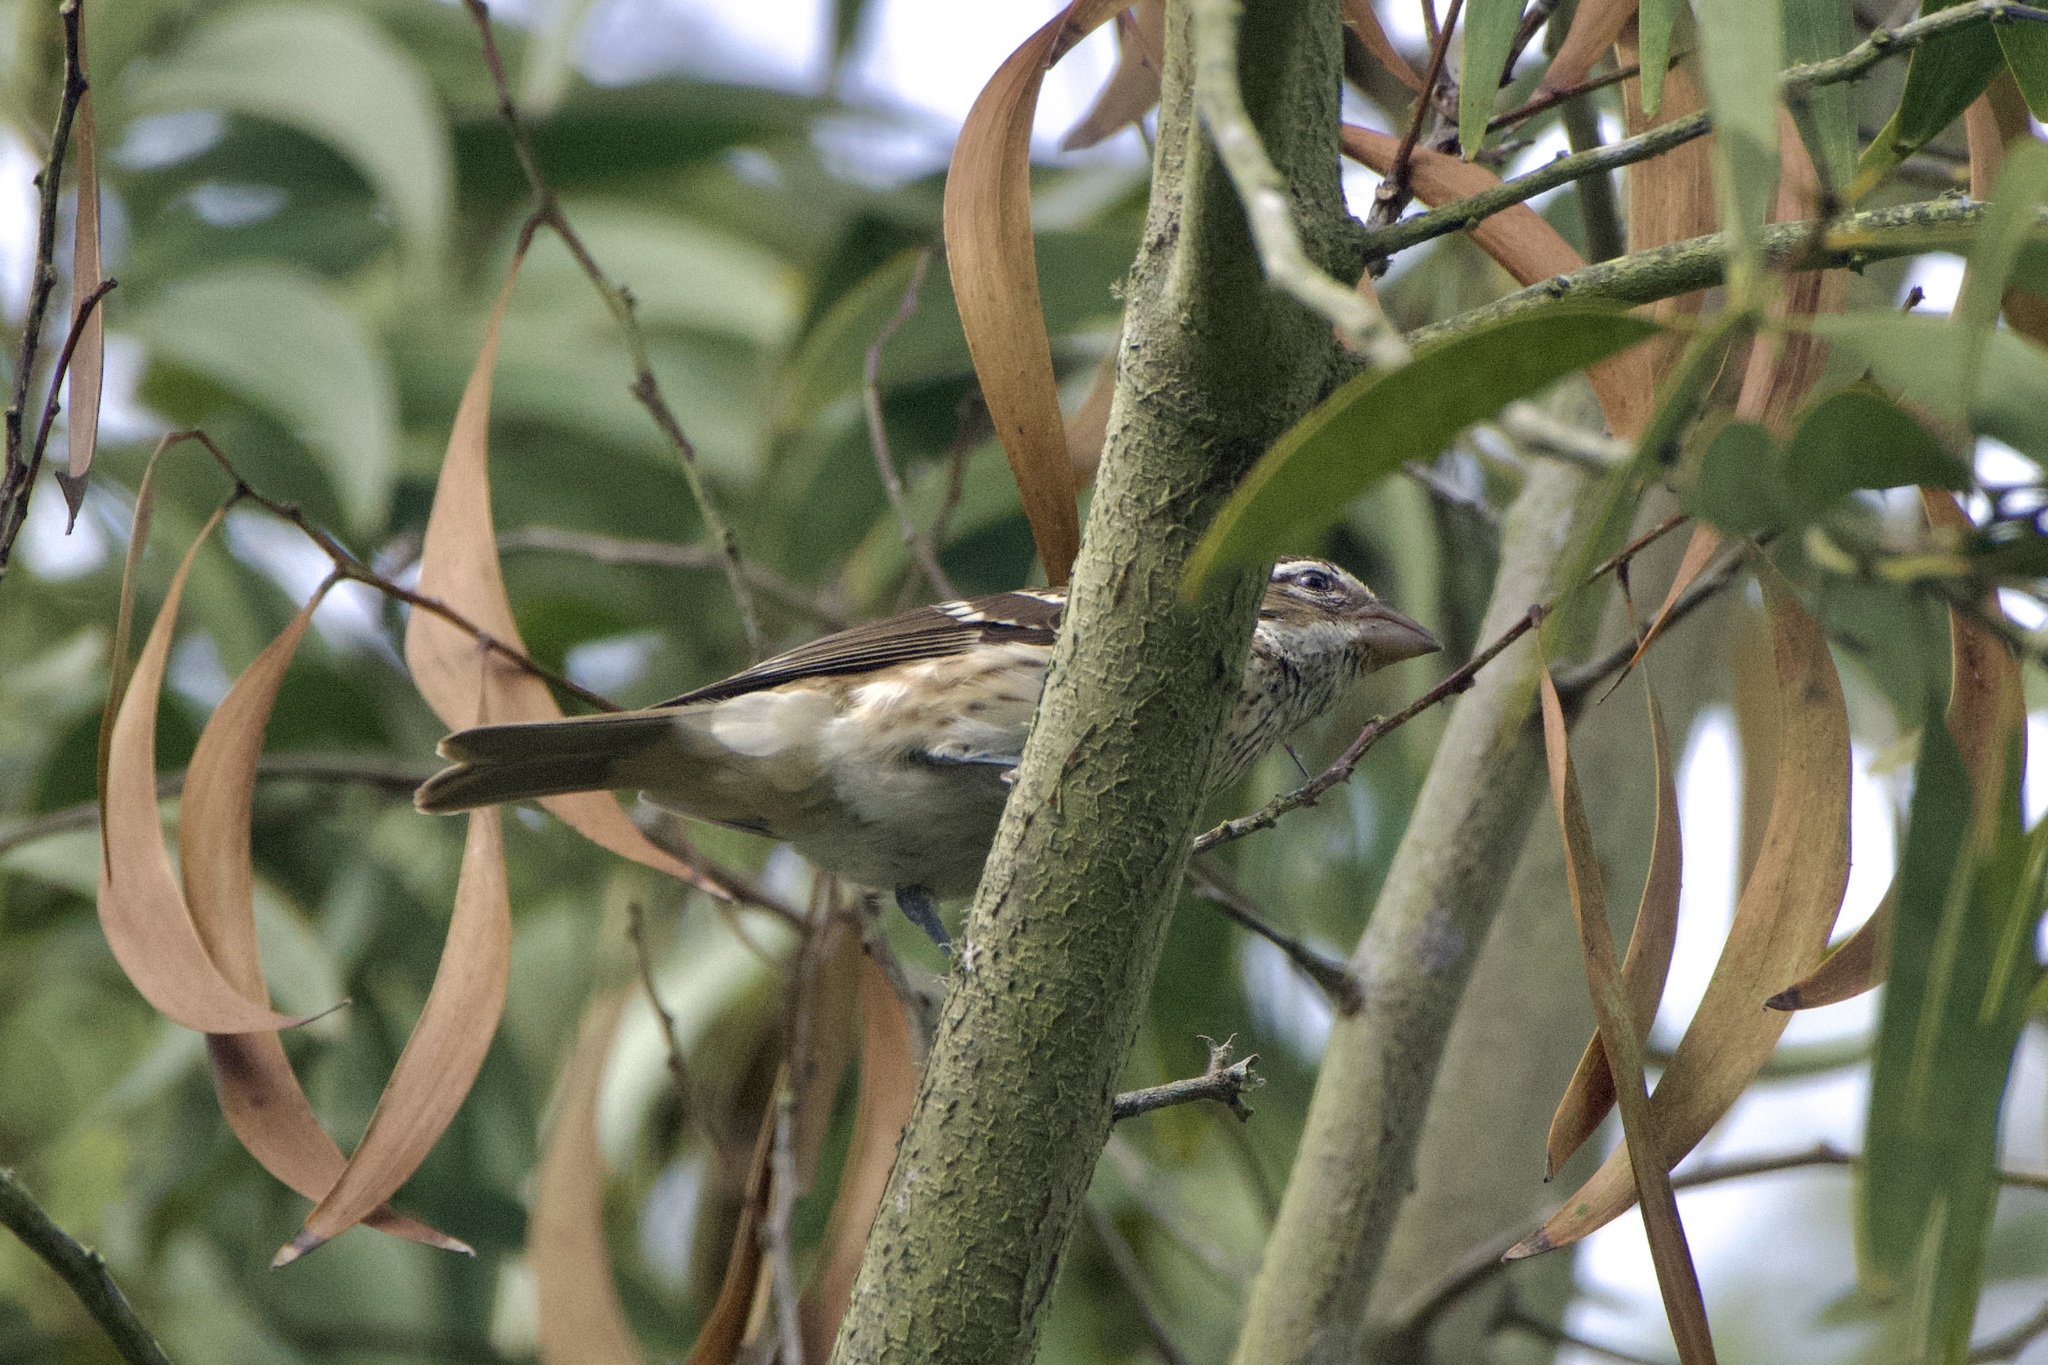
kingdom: Animalia
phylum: Chordata
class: Aves
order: Passeriformes
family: Cardinalidae
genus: Pheucticus
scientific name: Pheucticus ludovicianus
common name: Rose-breasted grosbeak
